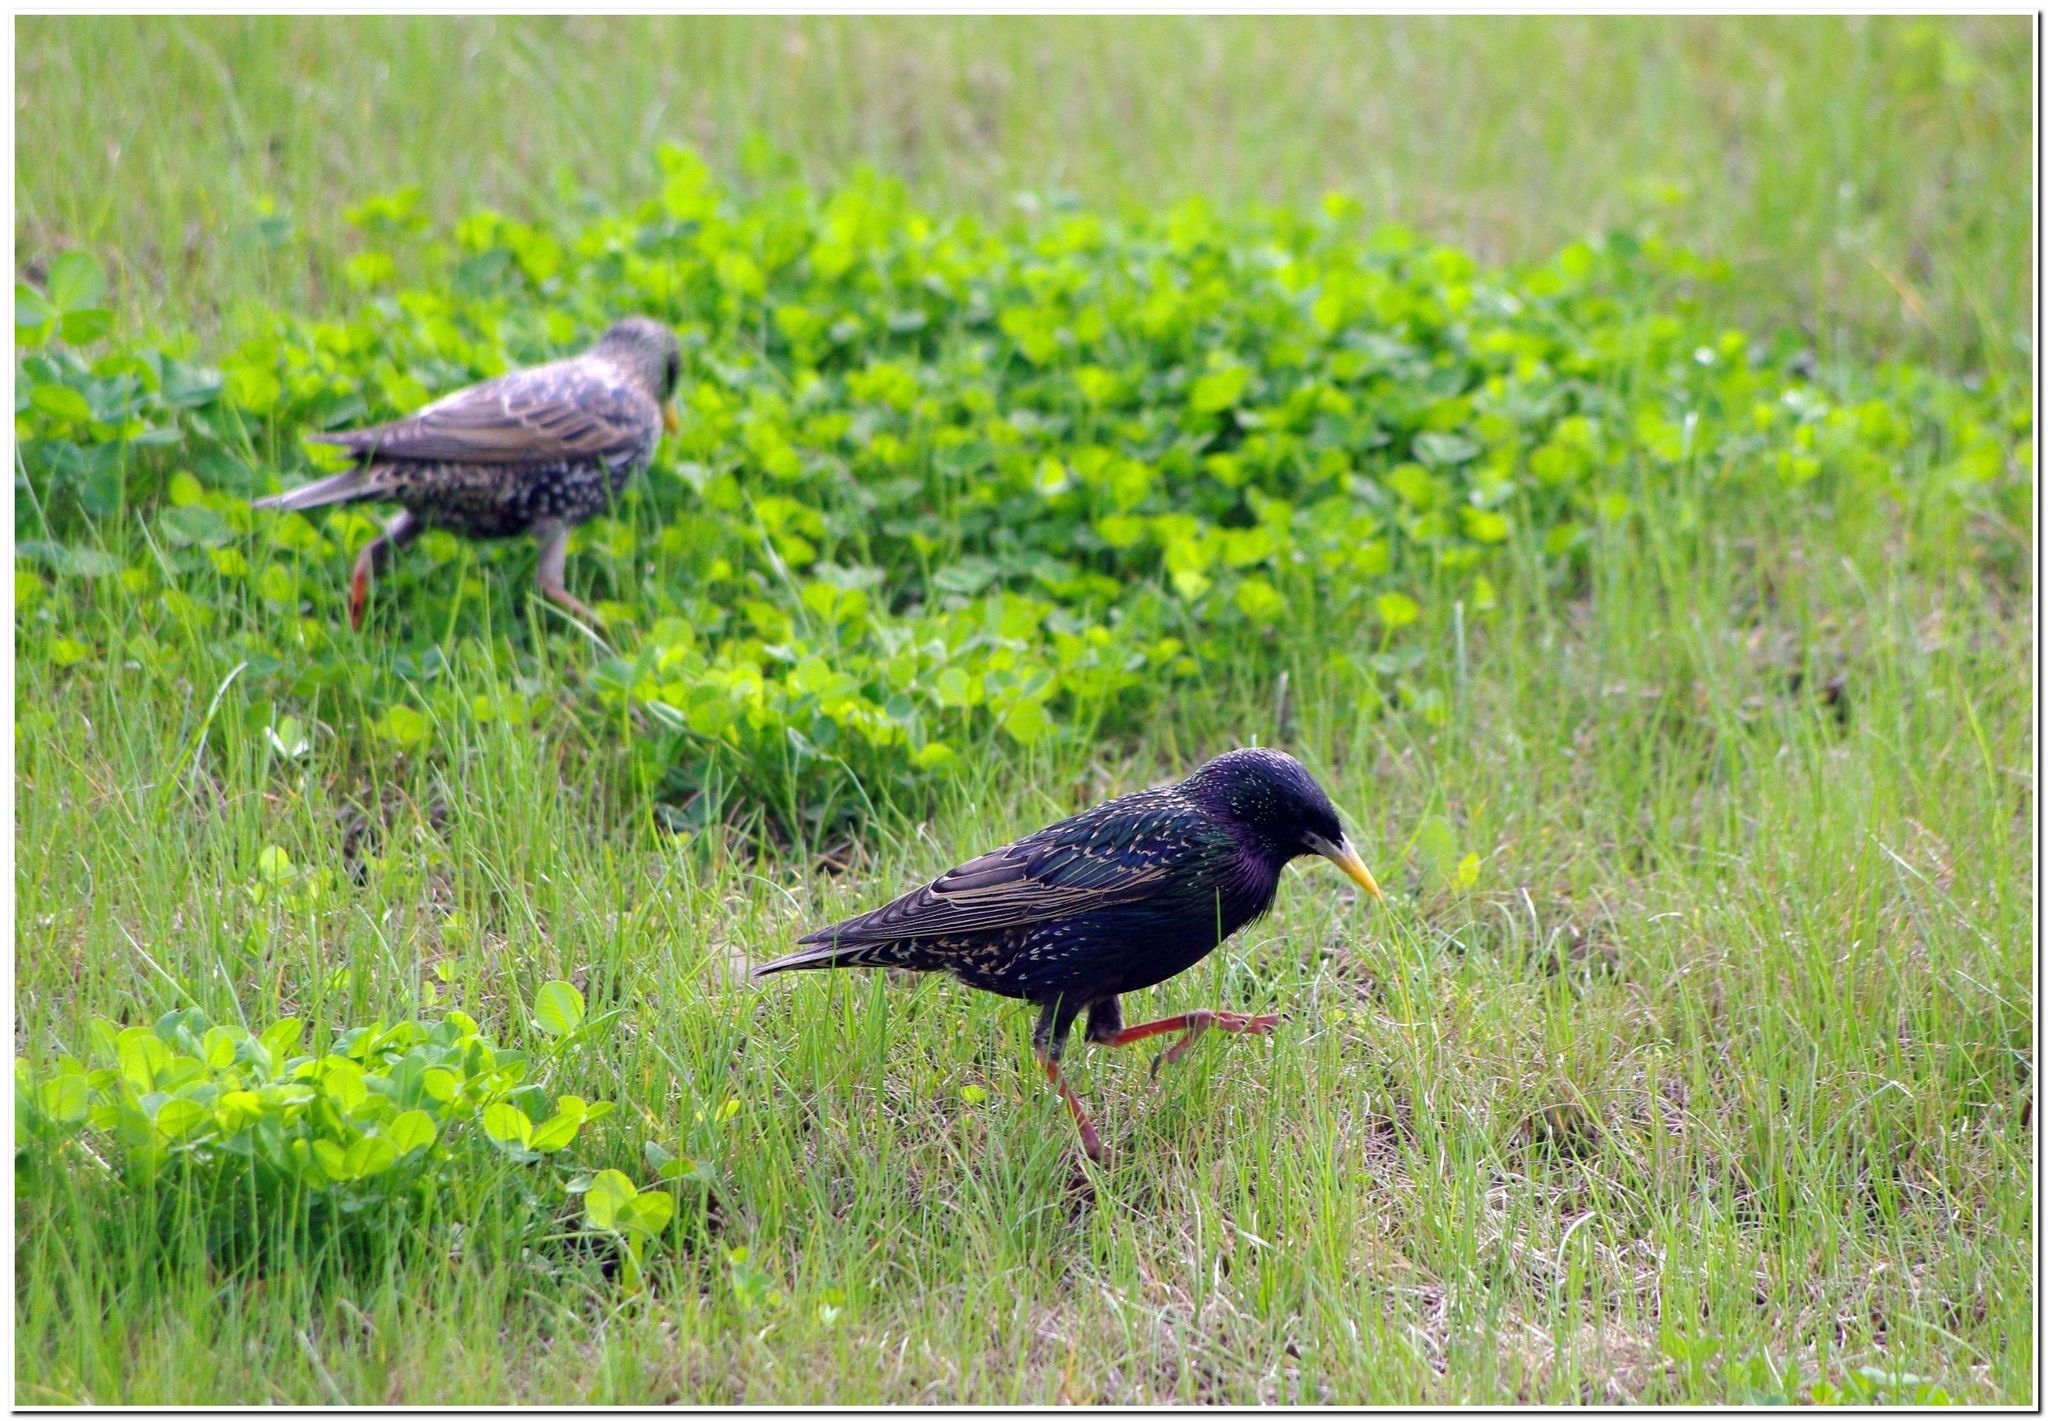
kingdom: Animalia
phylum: Chordata
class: Aves
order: Passeriformes
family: Sturnidae
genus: Sturnus
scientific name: Sturnus vulgaris
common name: Common starling
